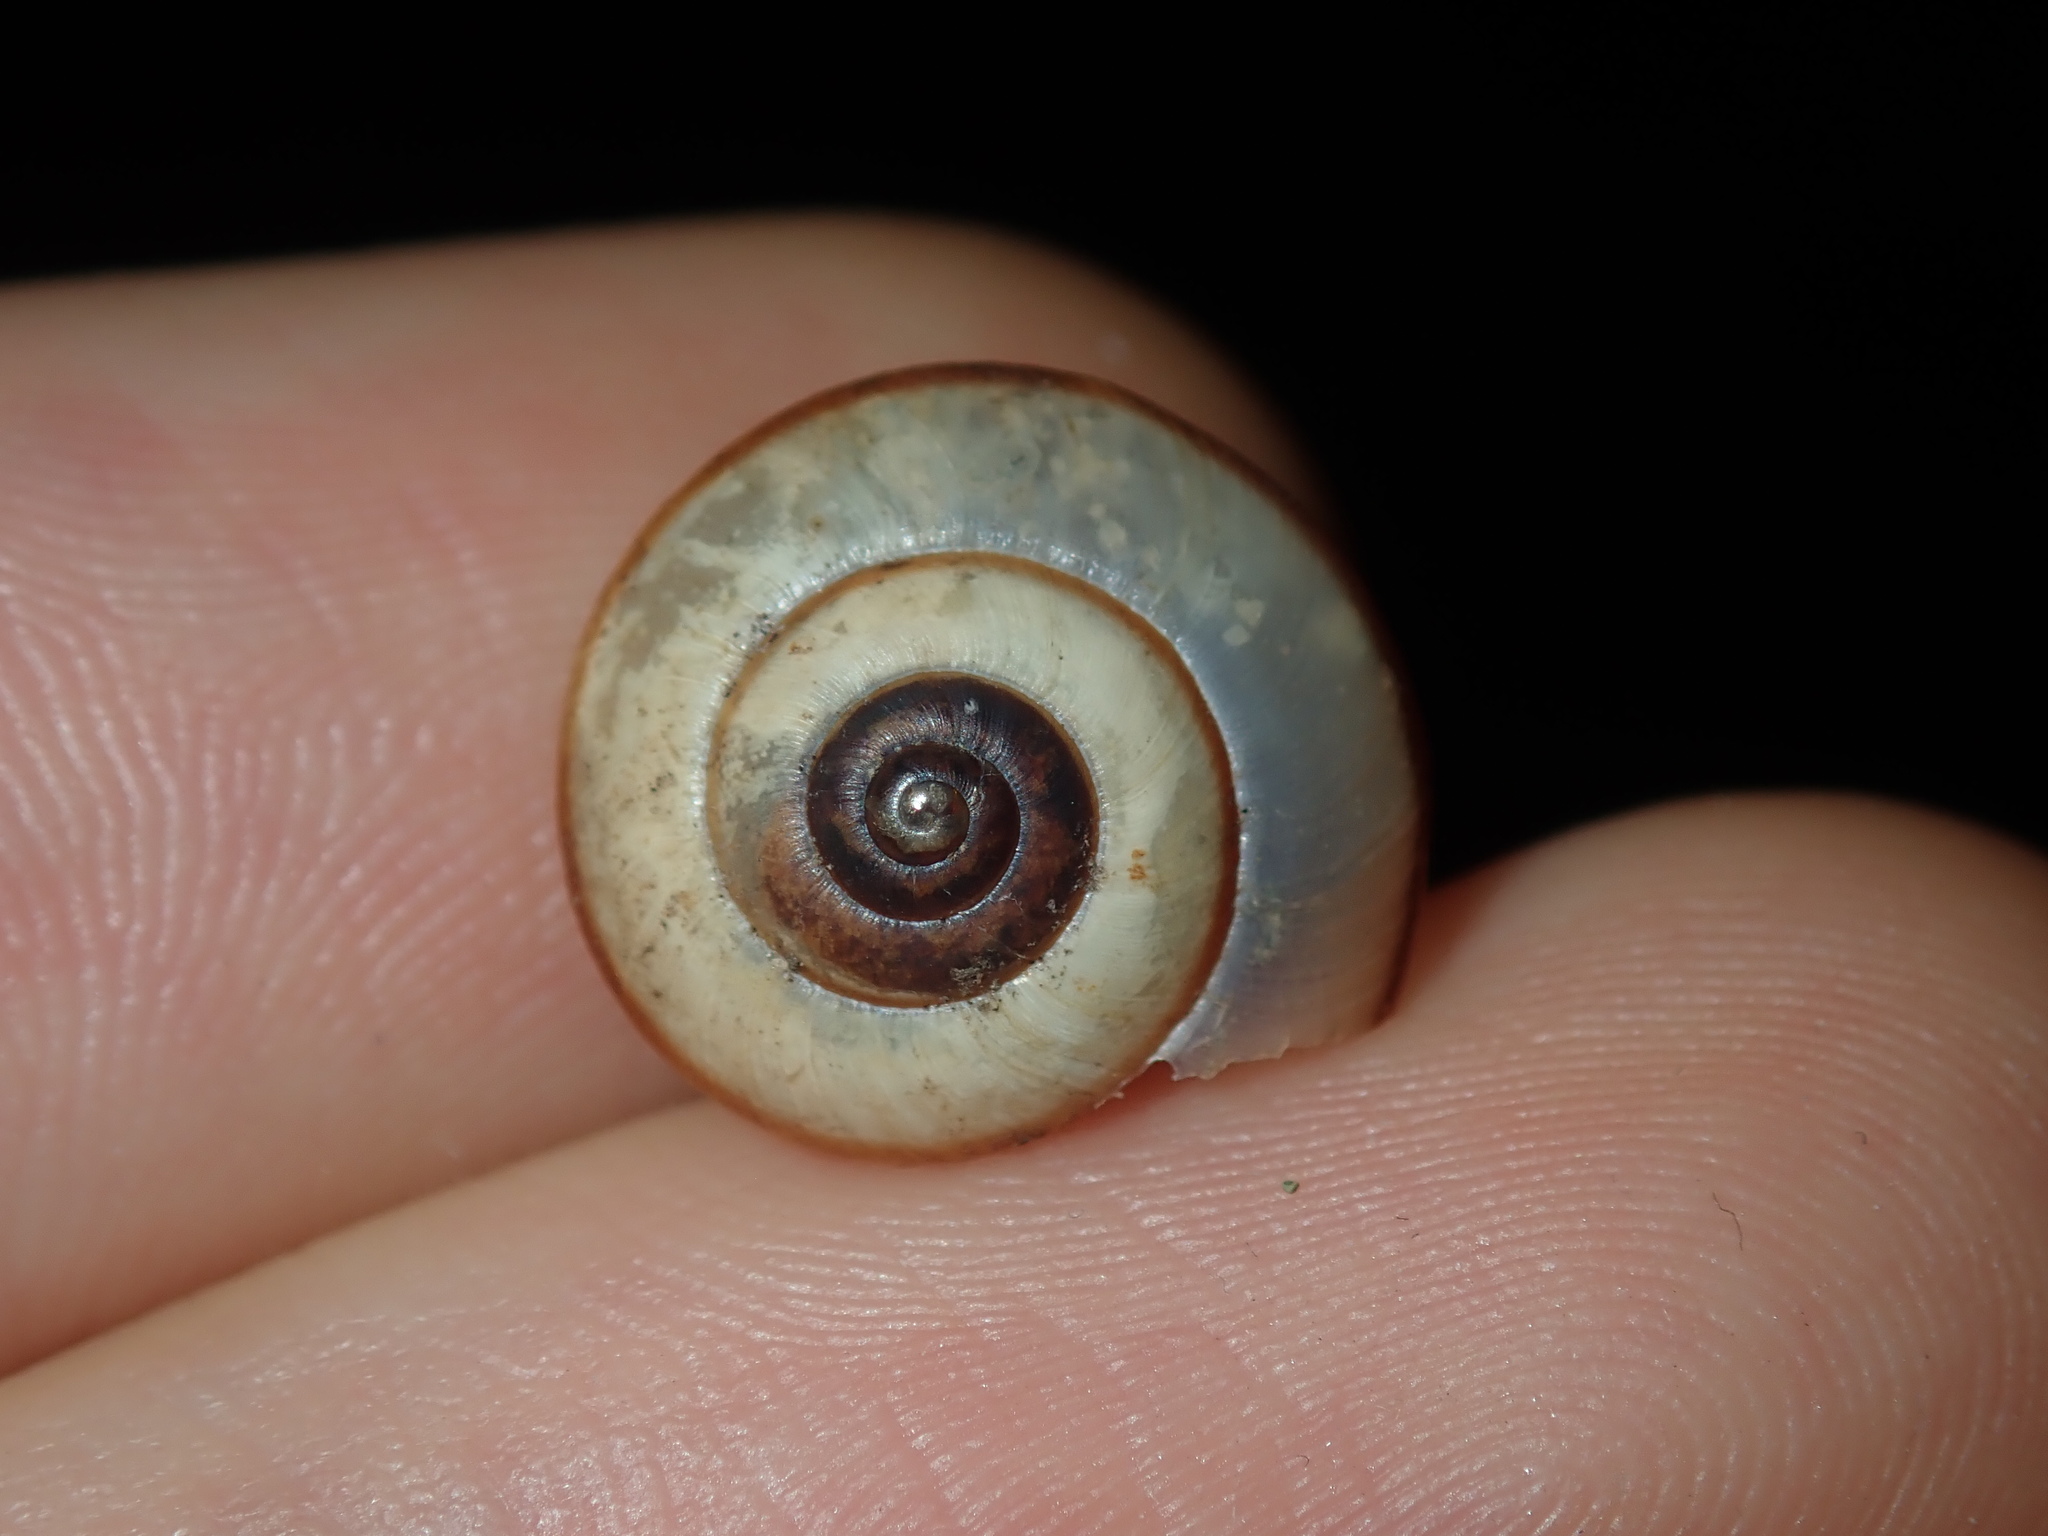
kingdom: Animalia
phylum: Mollusca
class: Gastropoda
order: Stylommatophora
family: Camaenidae
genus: Bradybaena
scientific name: Bradybaena similaris
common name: Asian trampsnail
